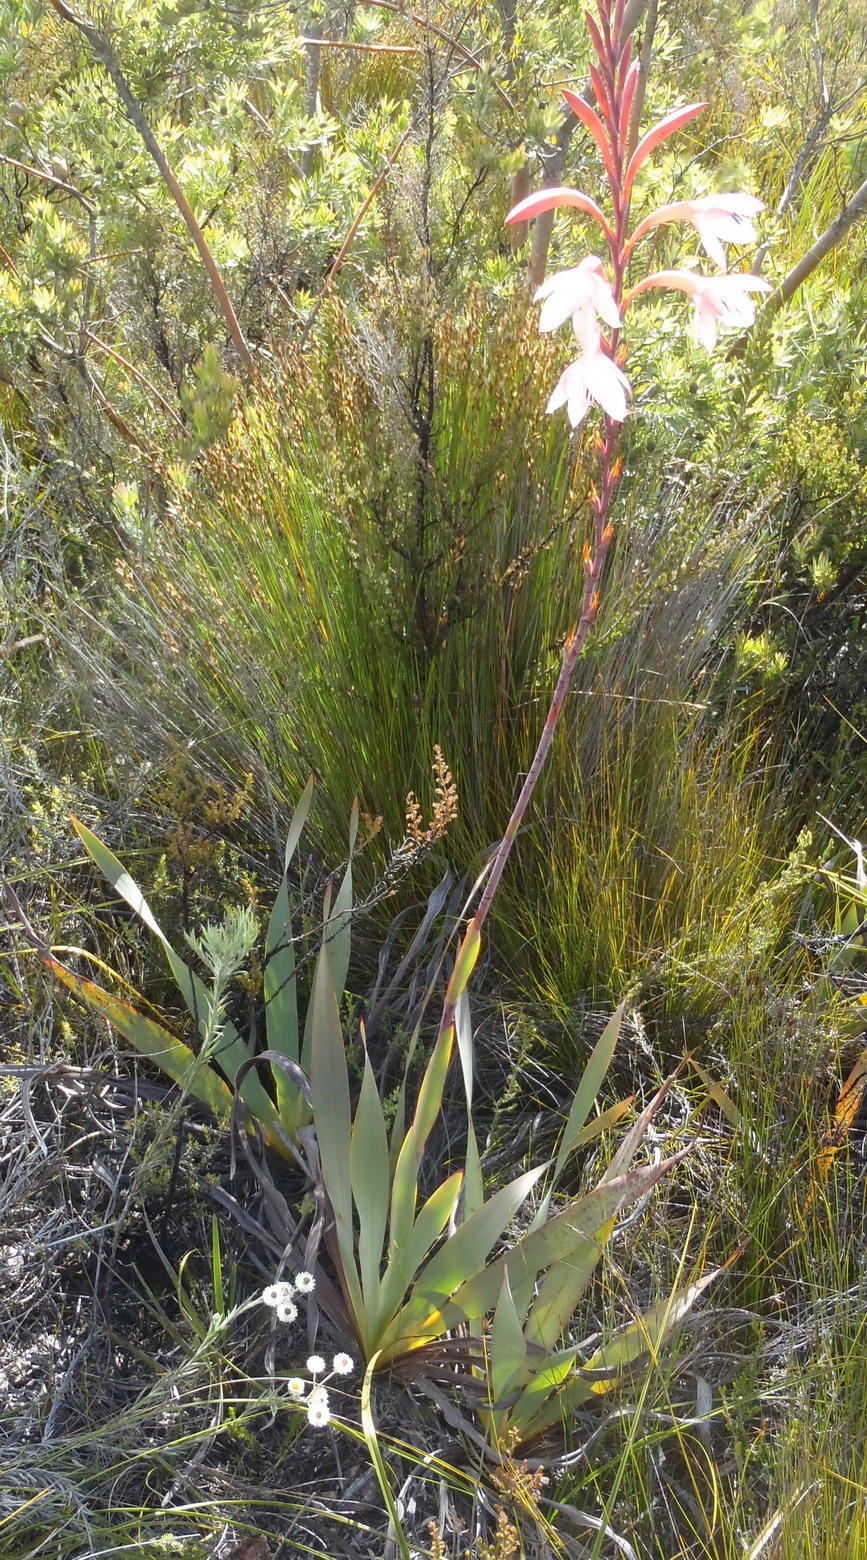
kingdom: Plantae
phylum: Tracheophyta
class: Liliopsida
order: Asparagales
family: Iridaceae
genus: Watsonia
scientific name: Watsonia fourcadei
